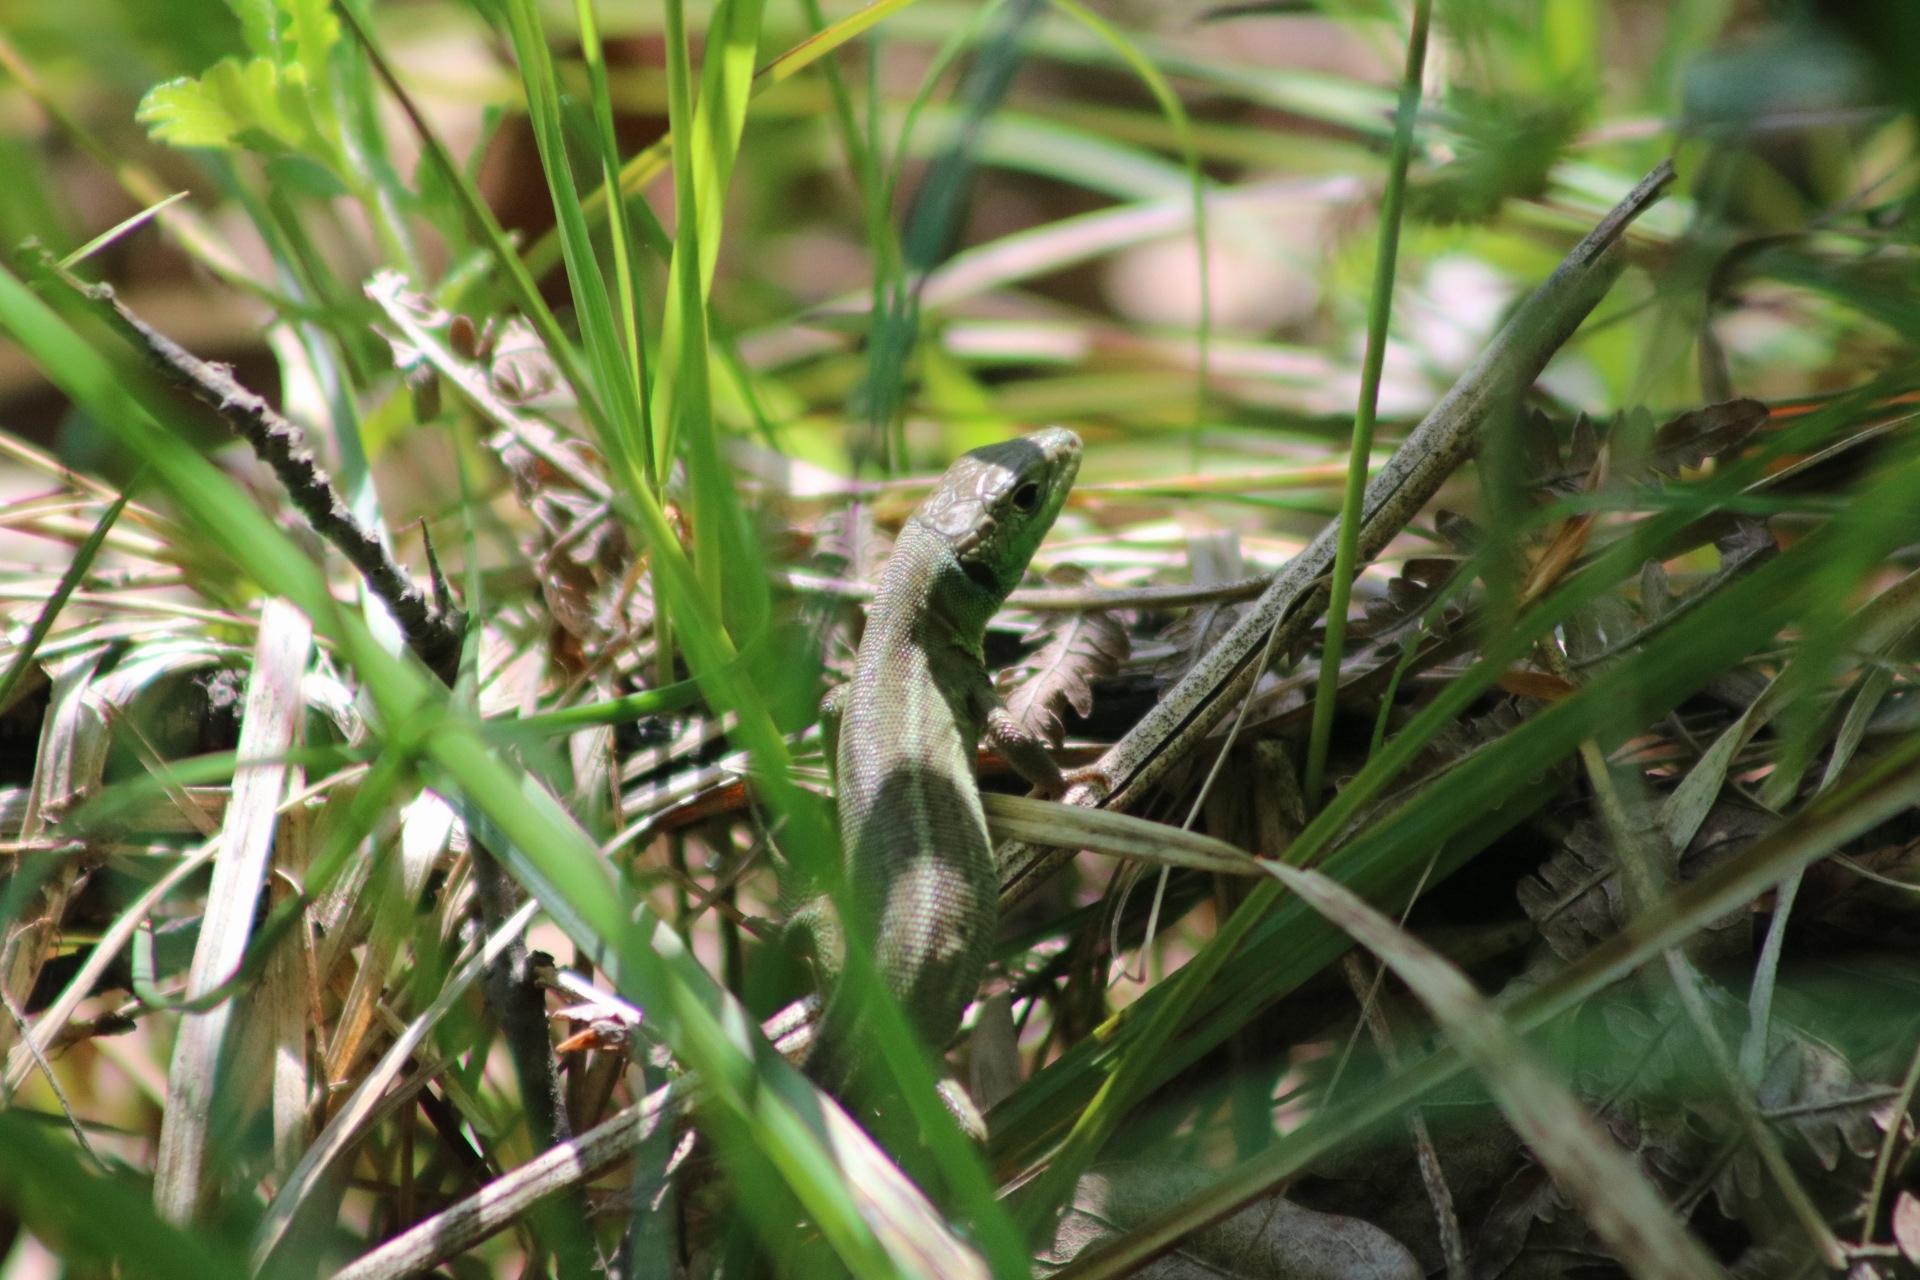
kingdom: Animalia
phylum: Chordata
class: Squamata
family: Lacertidae
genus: Lacerta
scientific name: Lacerta viridis
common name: European green lizard
